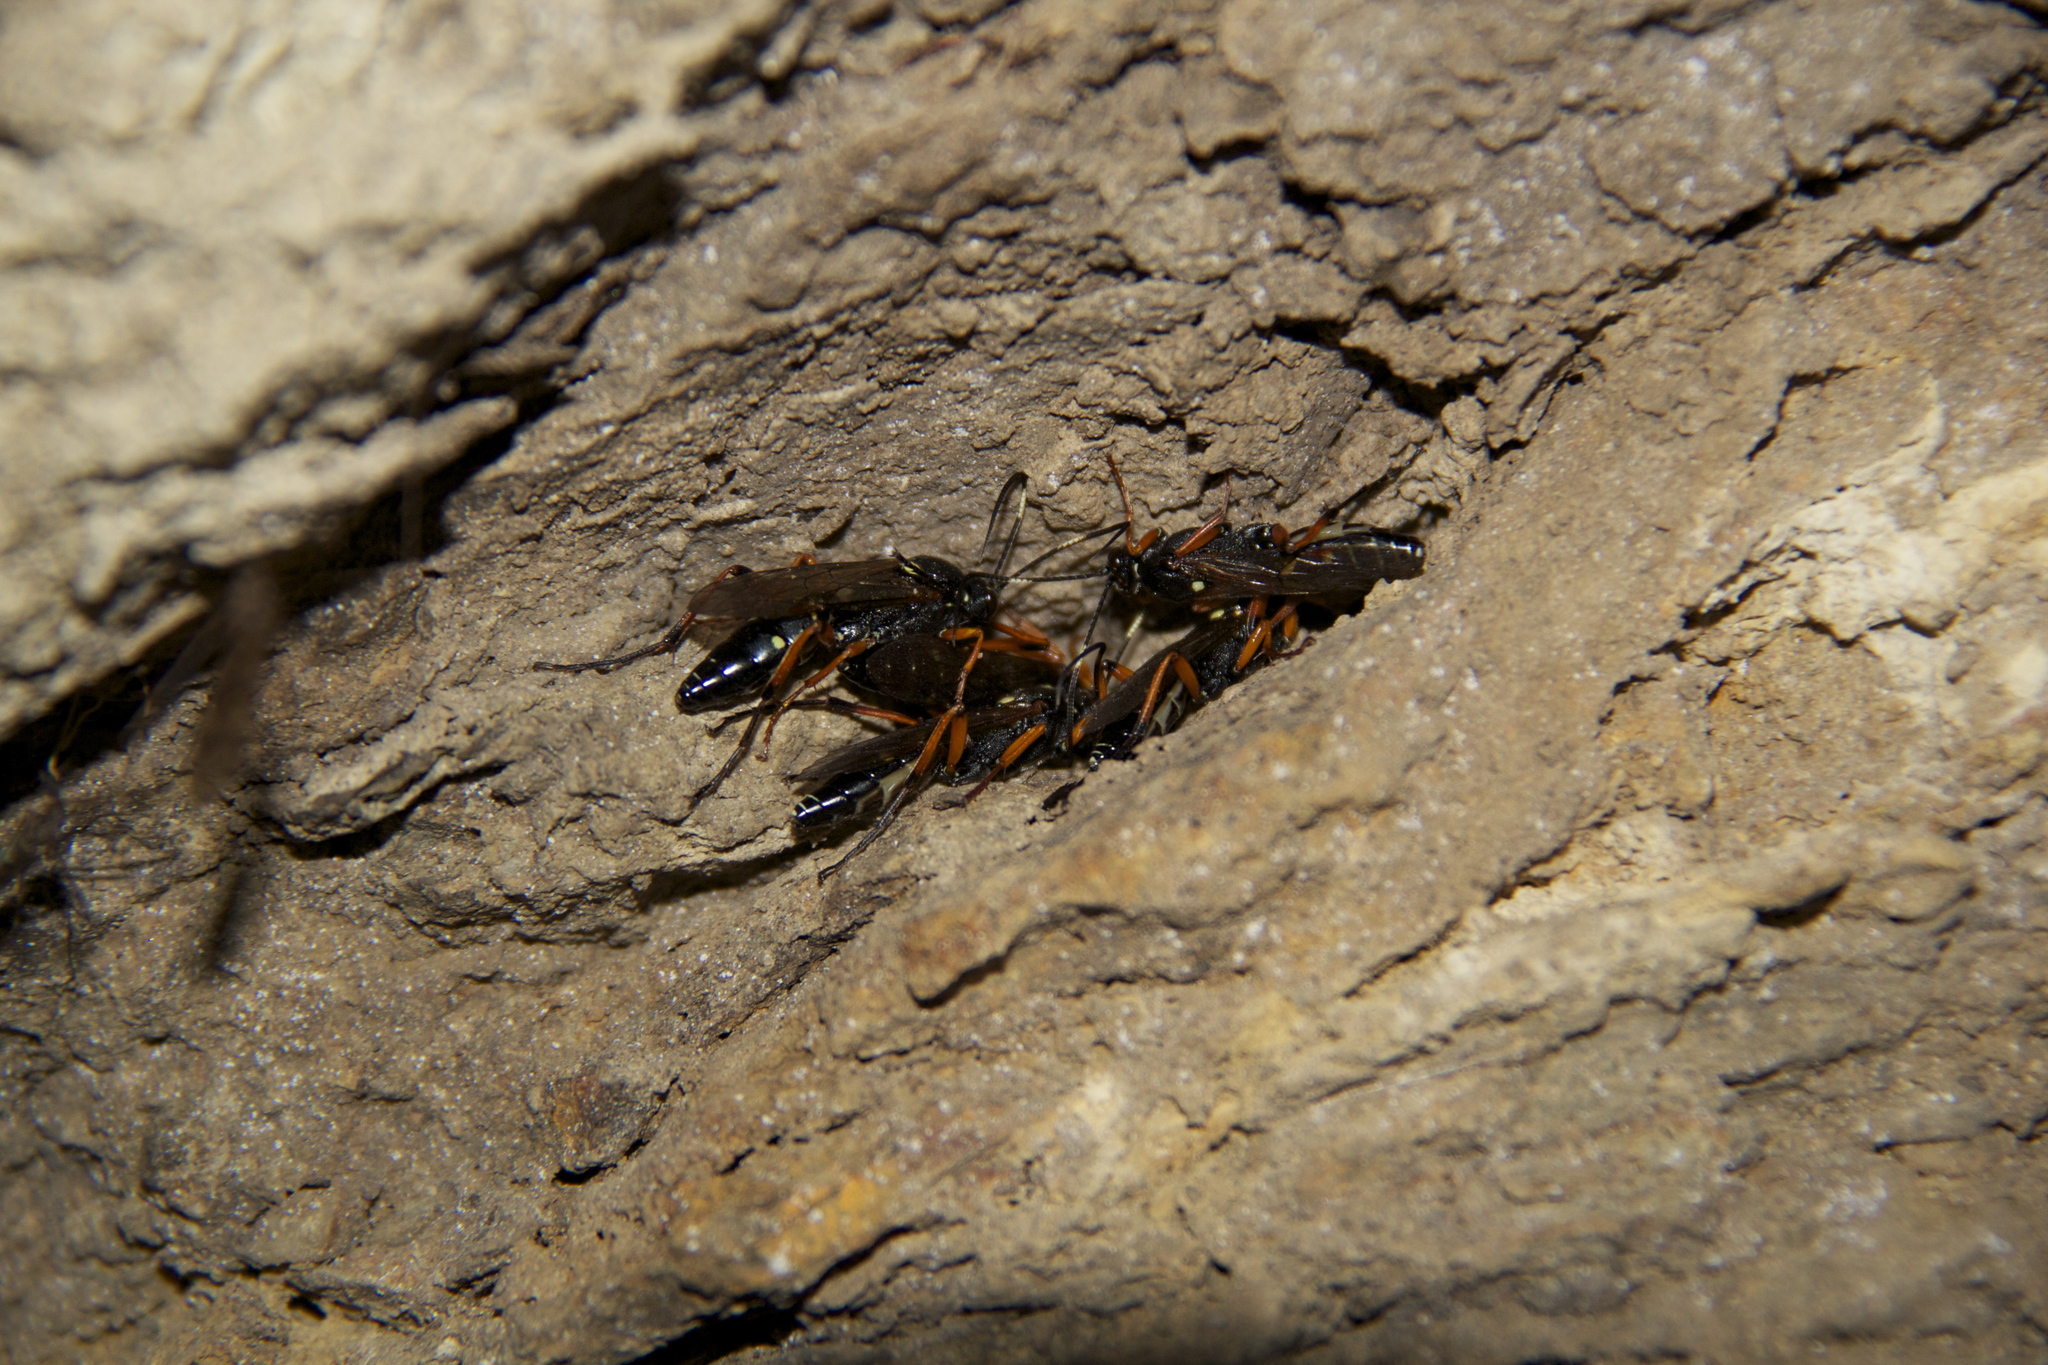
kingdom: Animalia
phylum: Arthropoda
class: Insecta
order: Hymenoptera
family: Ichneumonidae
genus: Diphyus
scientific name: Diphyus quadripunctorius
